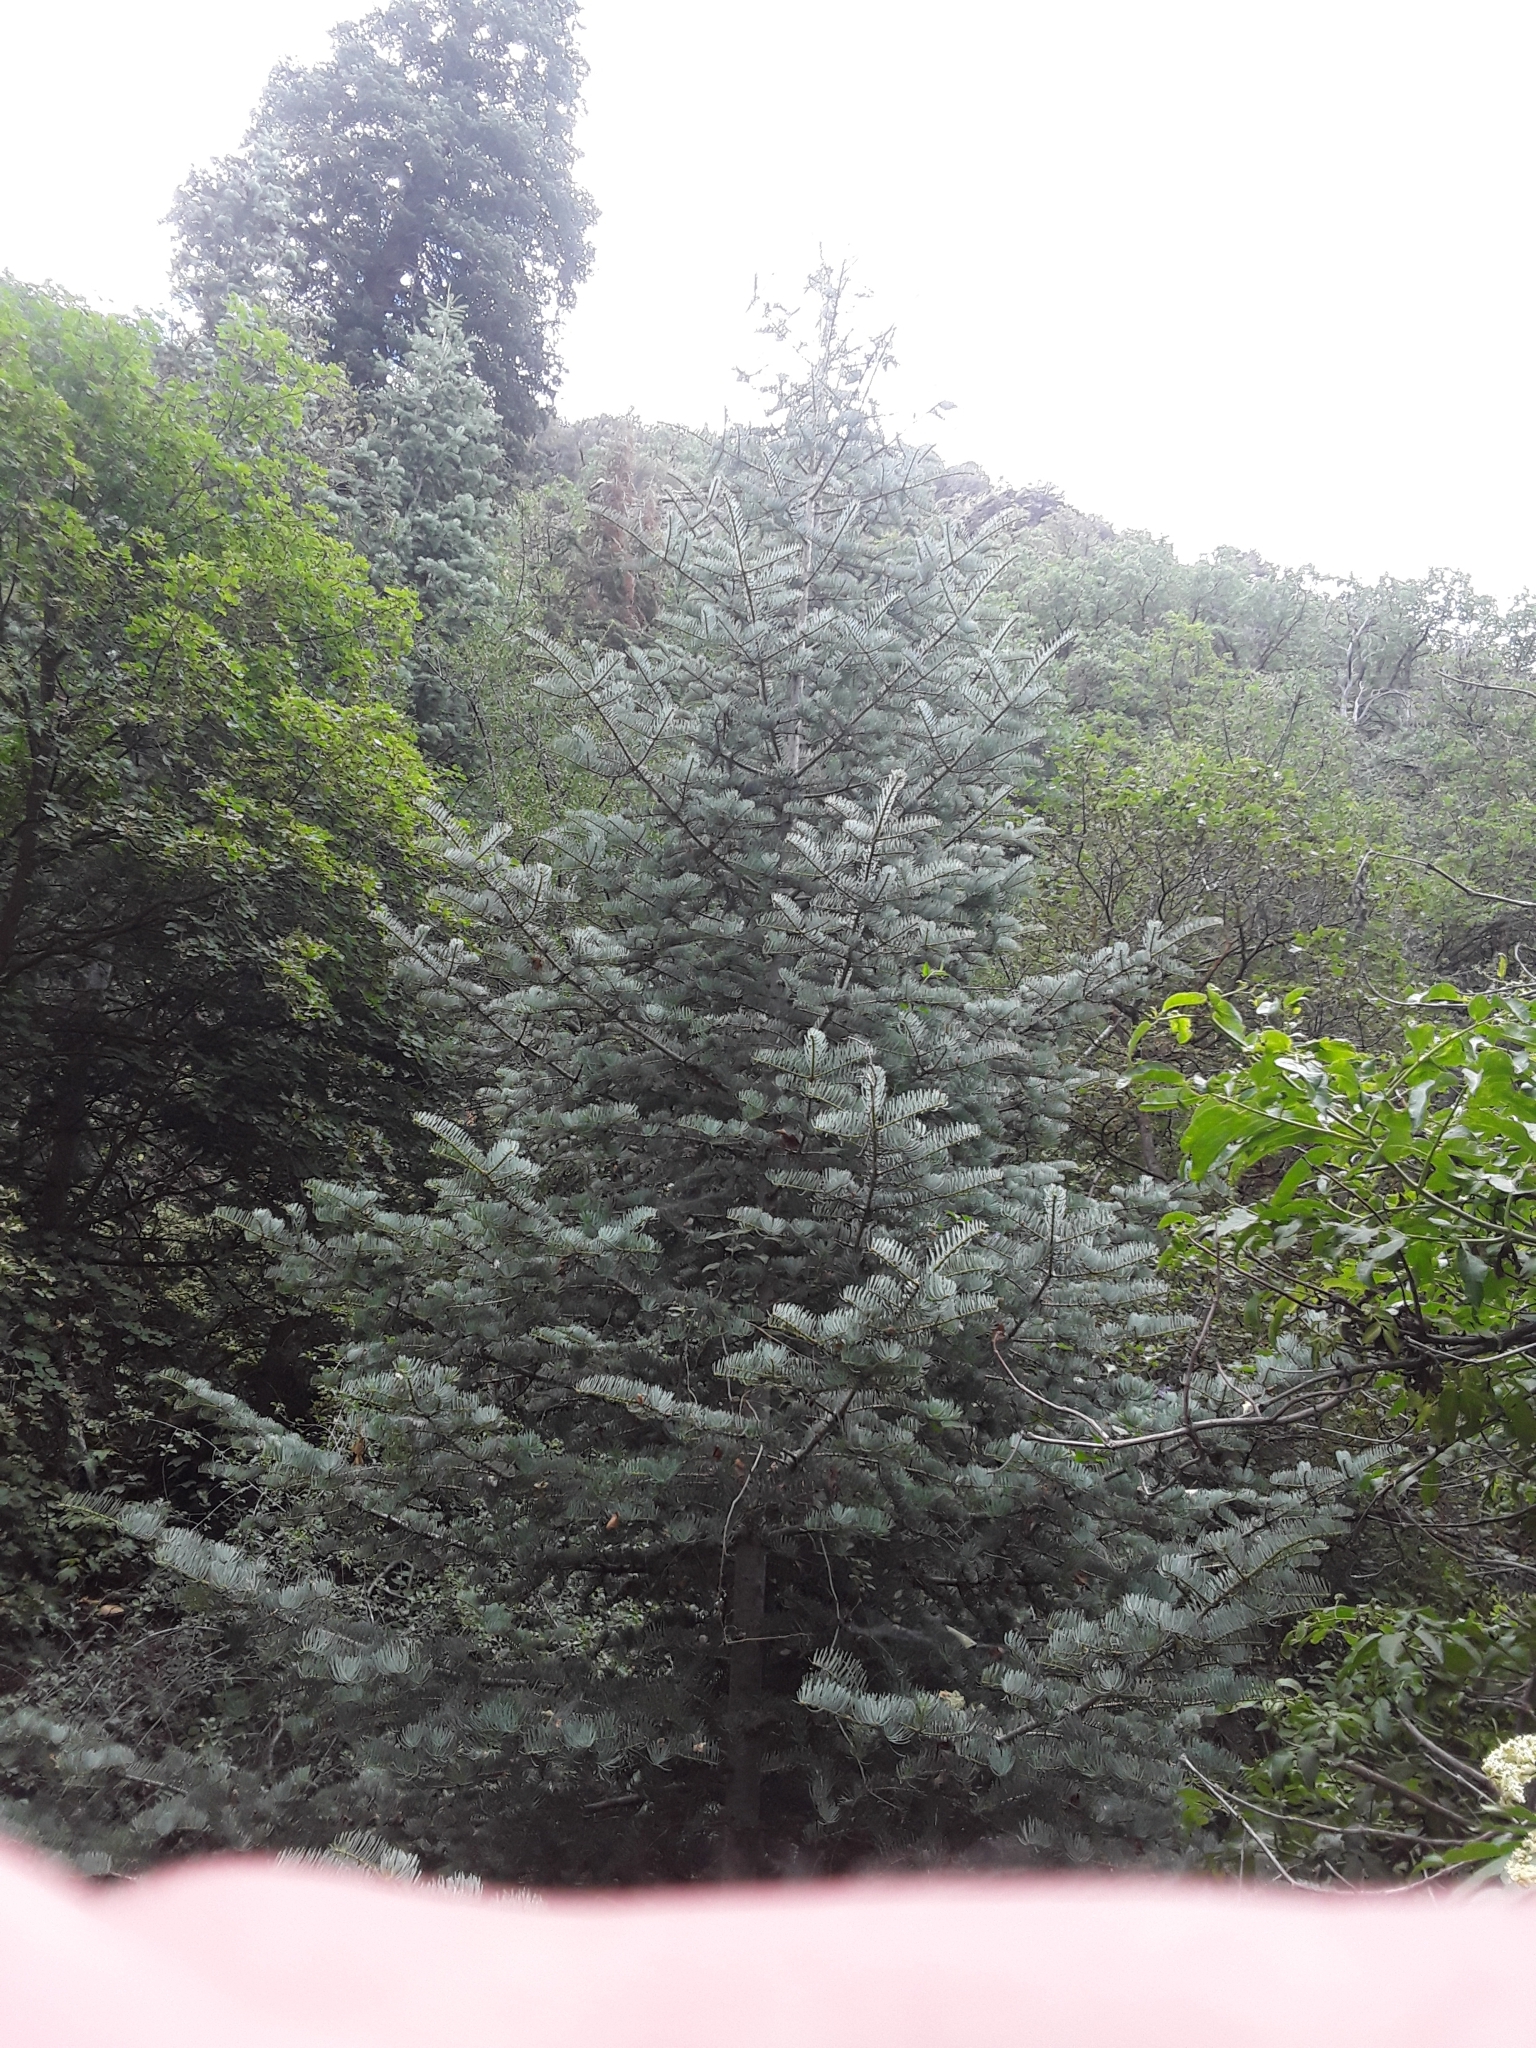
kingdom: Plantae
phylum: Tracheophyta
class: Pinopsida
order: Pinales
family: Pinaceae
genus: Abies
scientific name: Abies concolor
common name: Colorado fir
